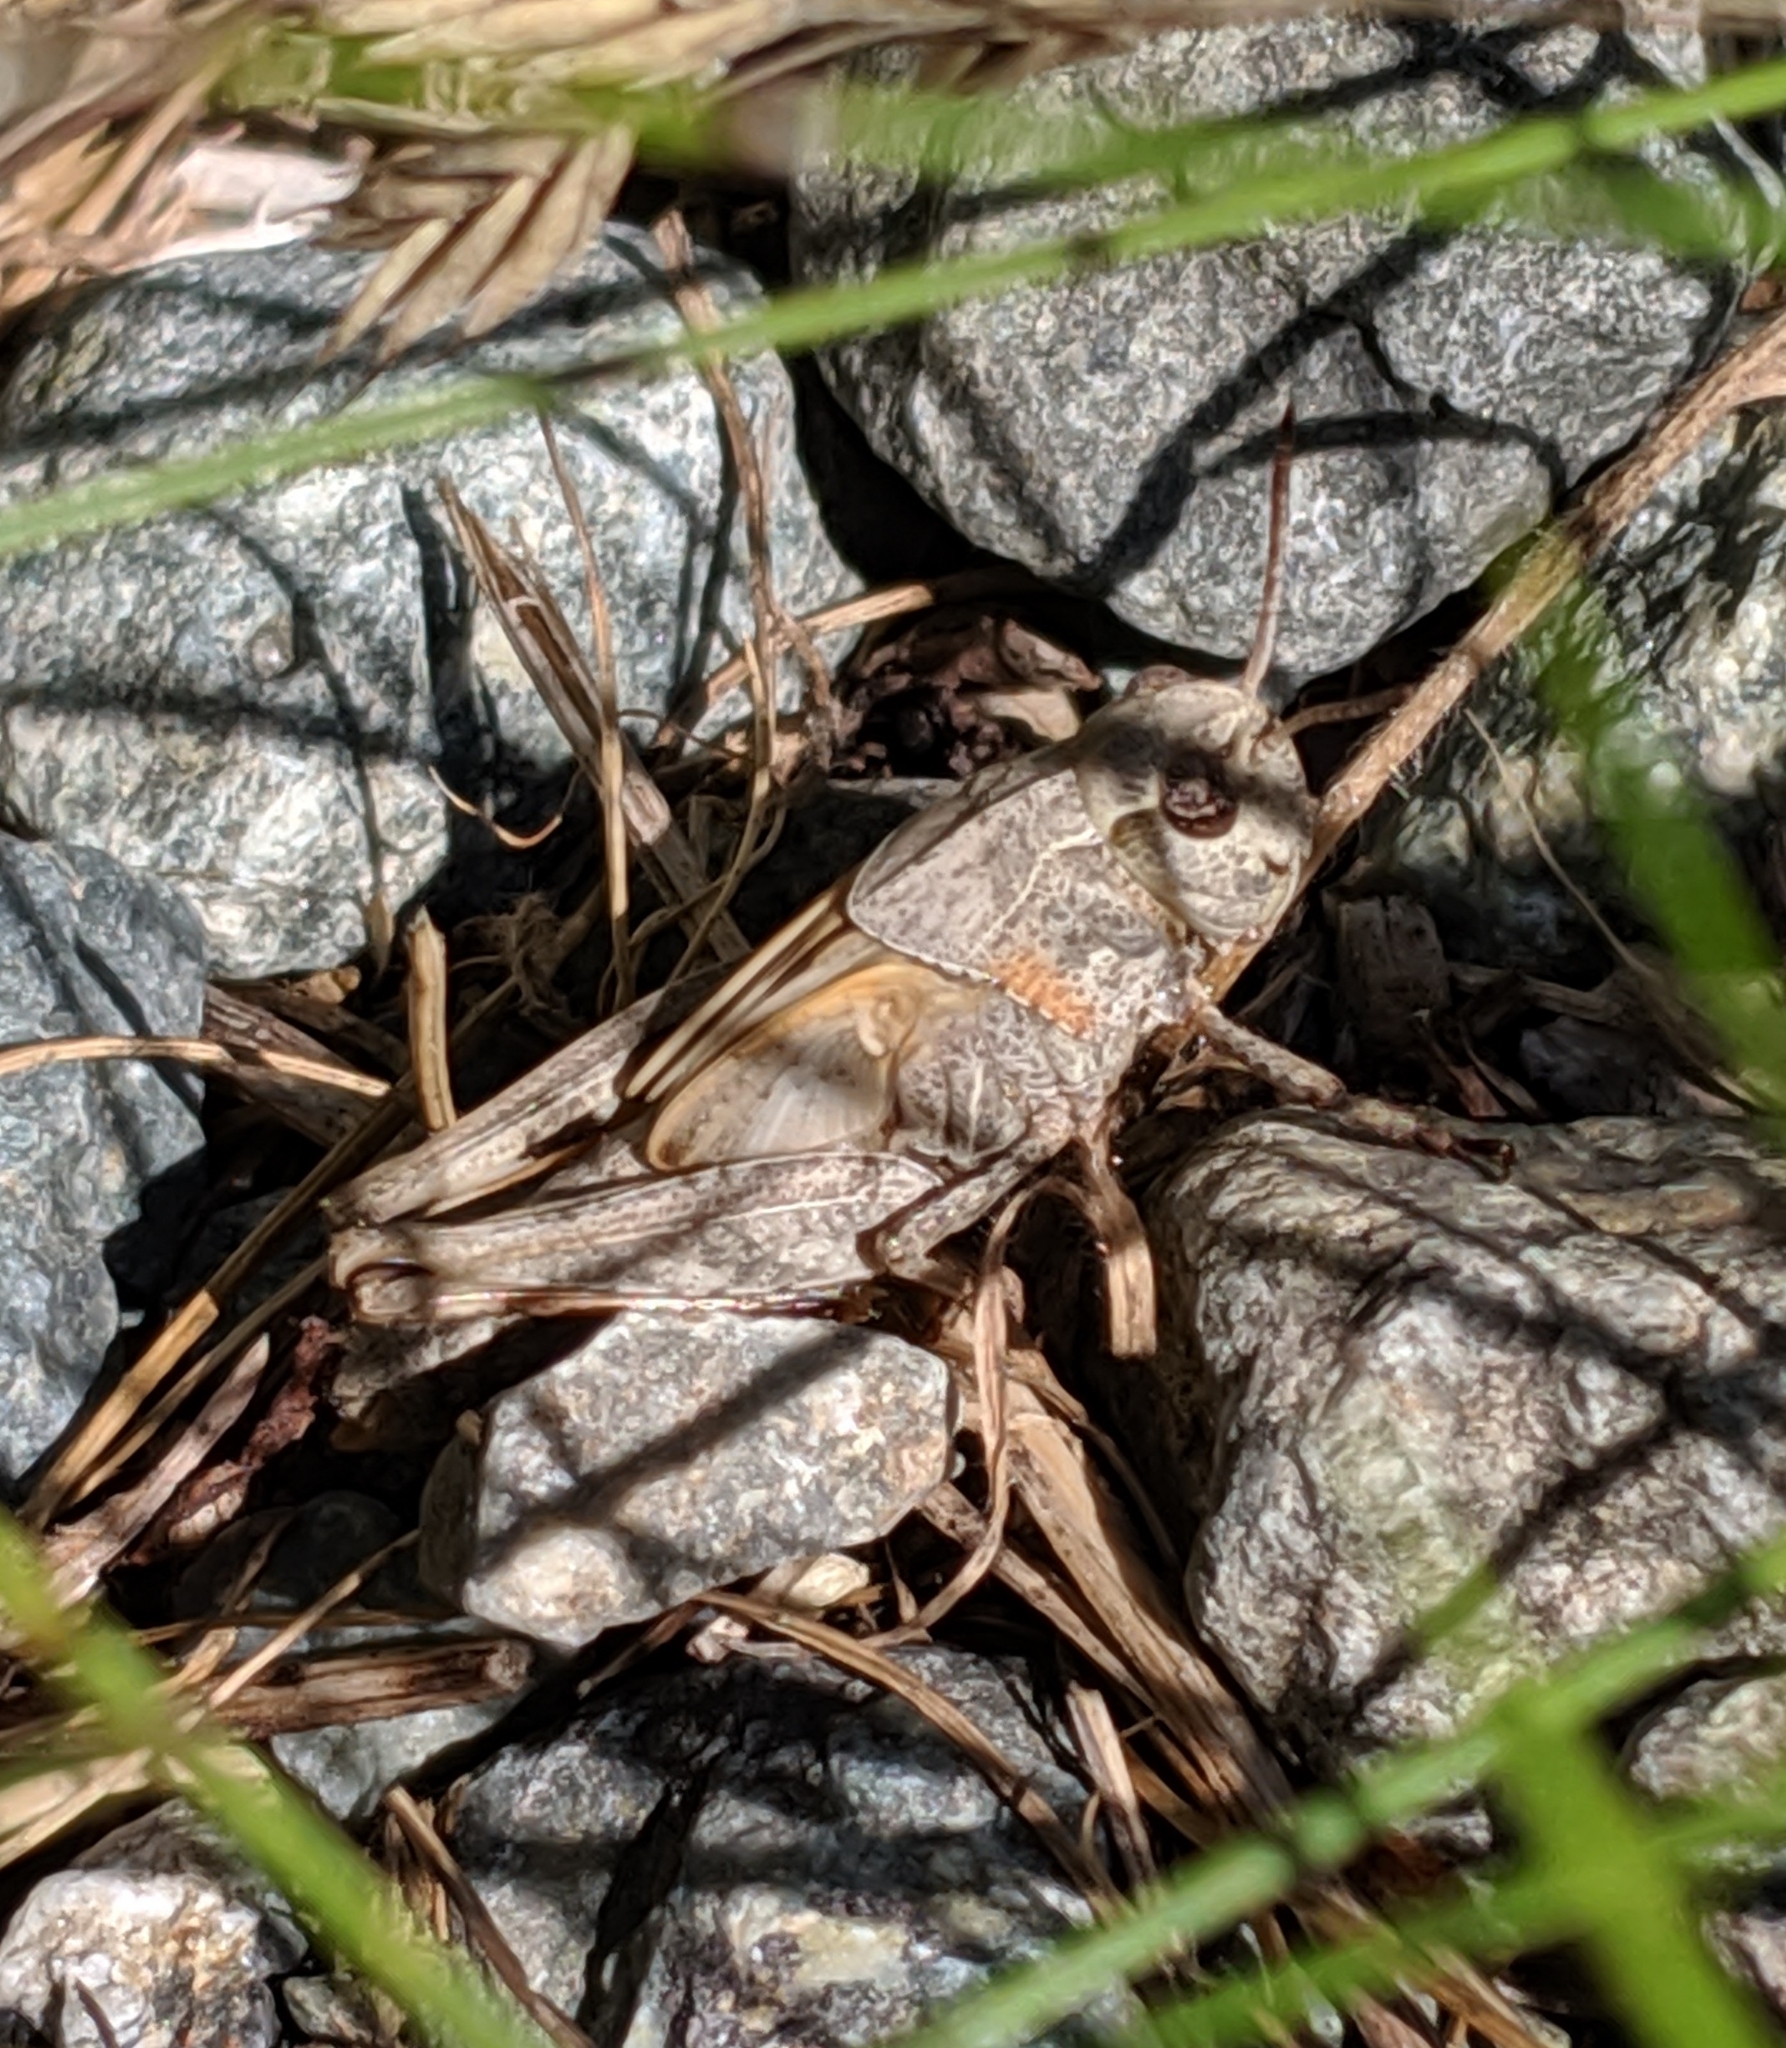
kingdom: Animalia
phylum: Arthropoda
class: Insecta
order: Orthoptera
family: Acrididae
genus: Camnula
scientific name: Camnula pellucida
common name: Clear-winged grasshopper
